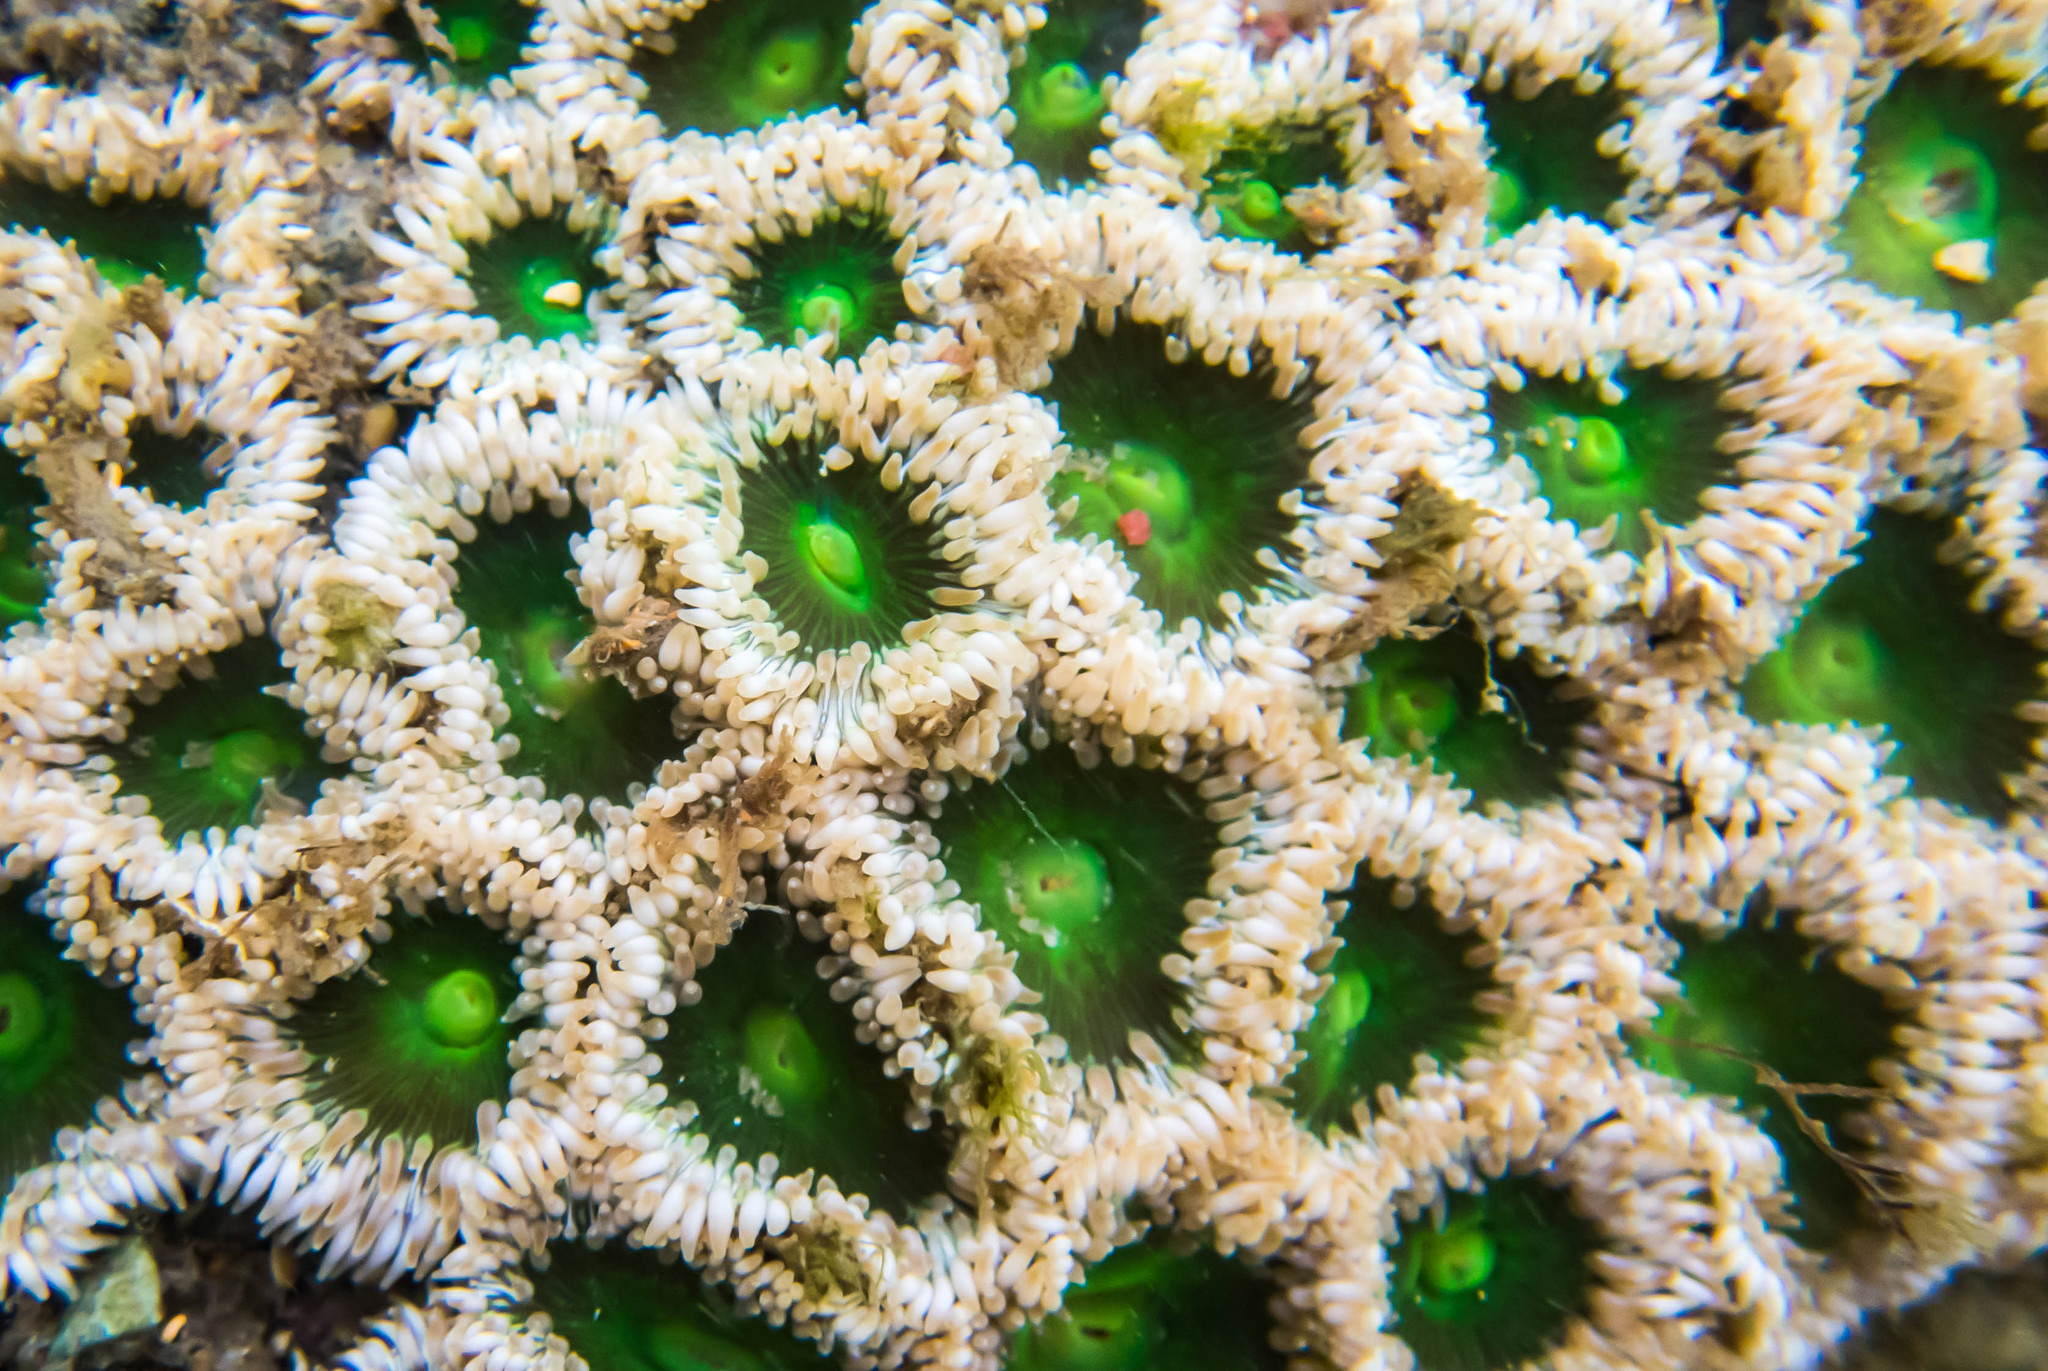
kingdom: Animalia
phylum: Cnidaria
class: Anthozoa
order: Actiniaria
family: Actiniidae
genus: Gyractis
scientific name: Gyractis sesere
